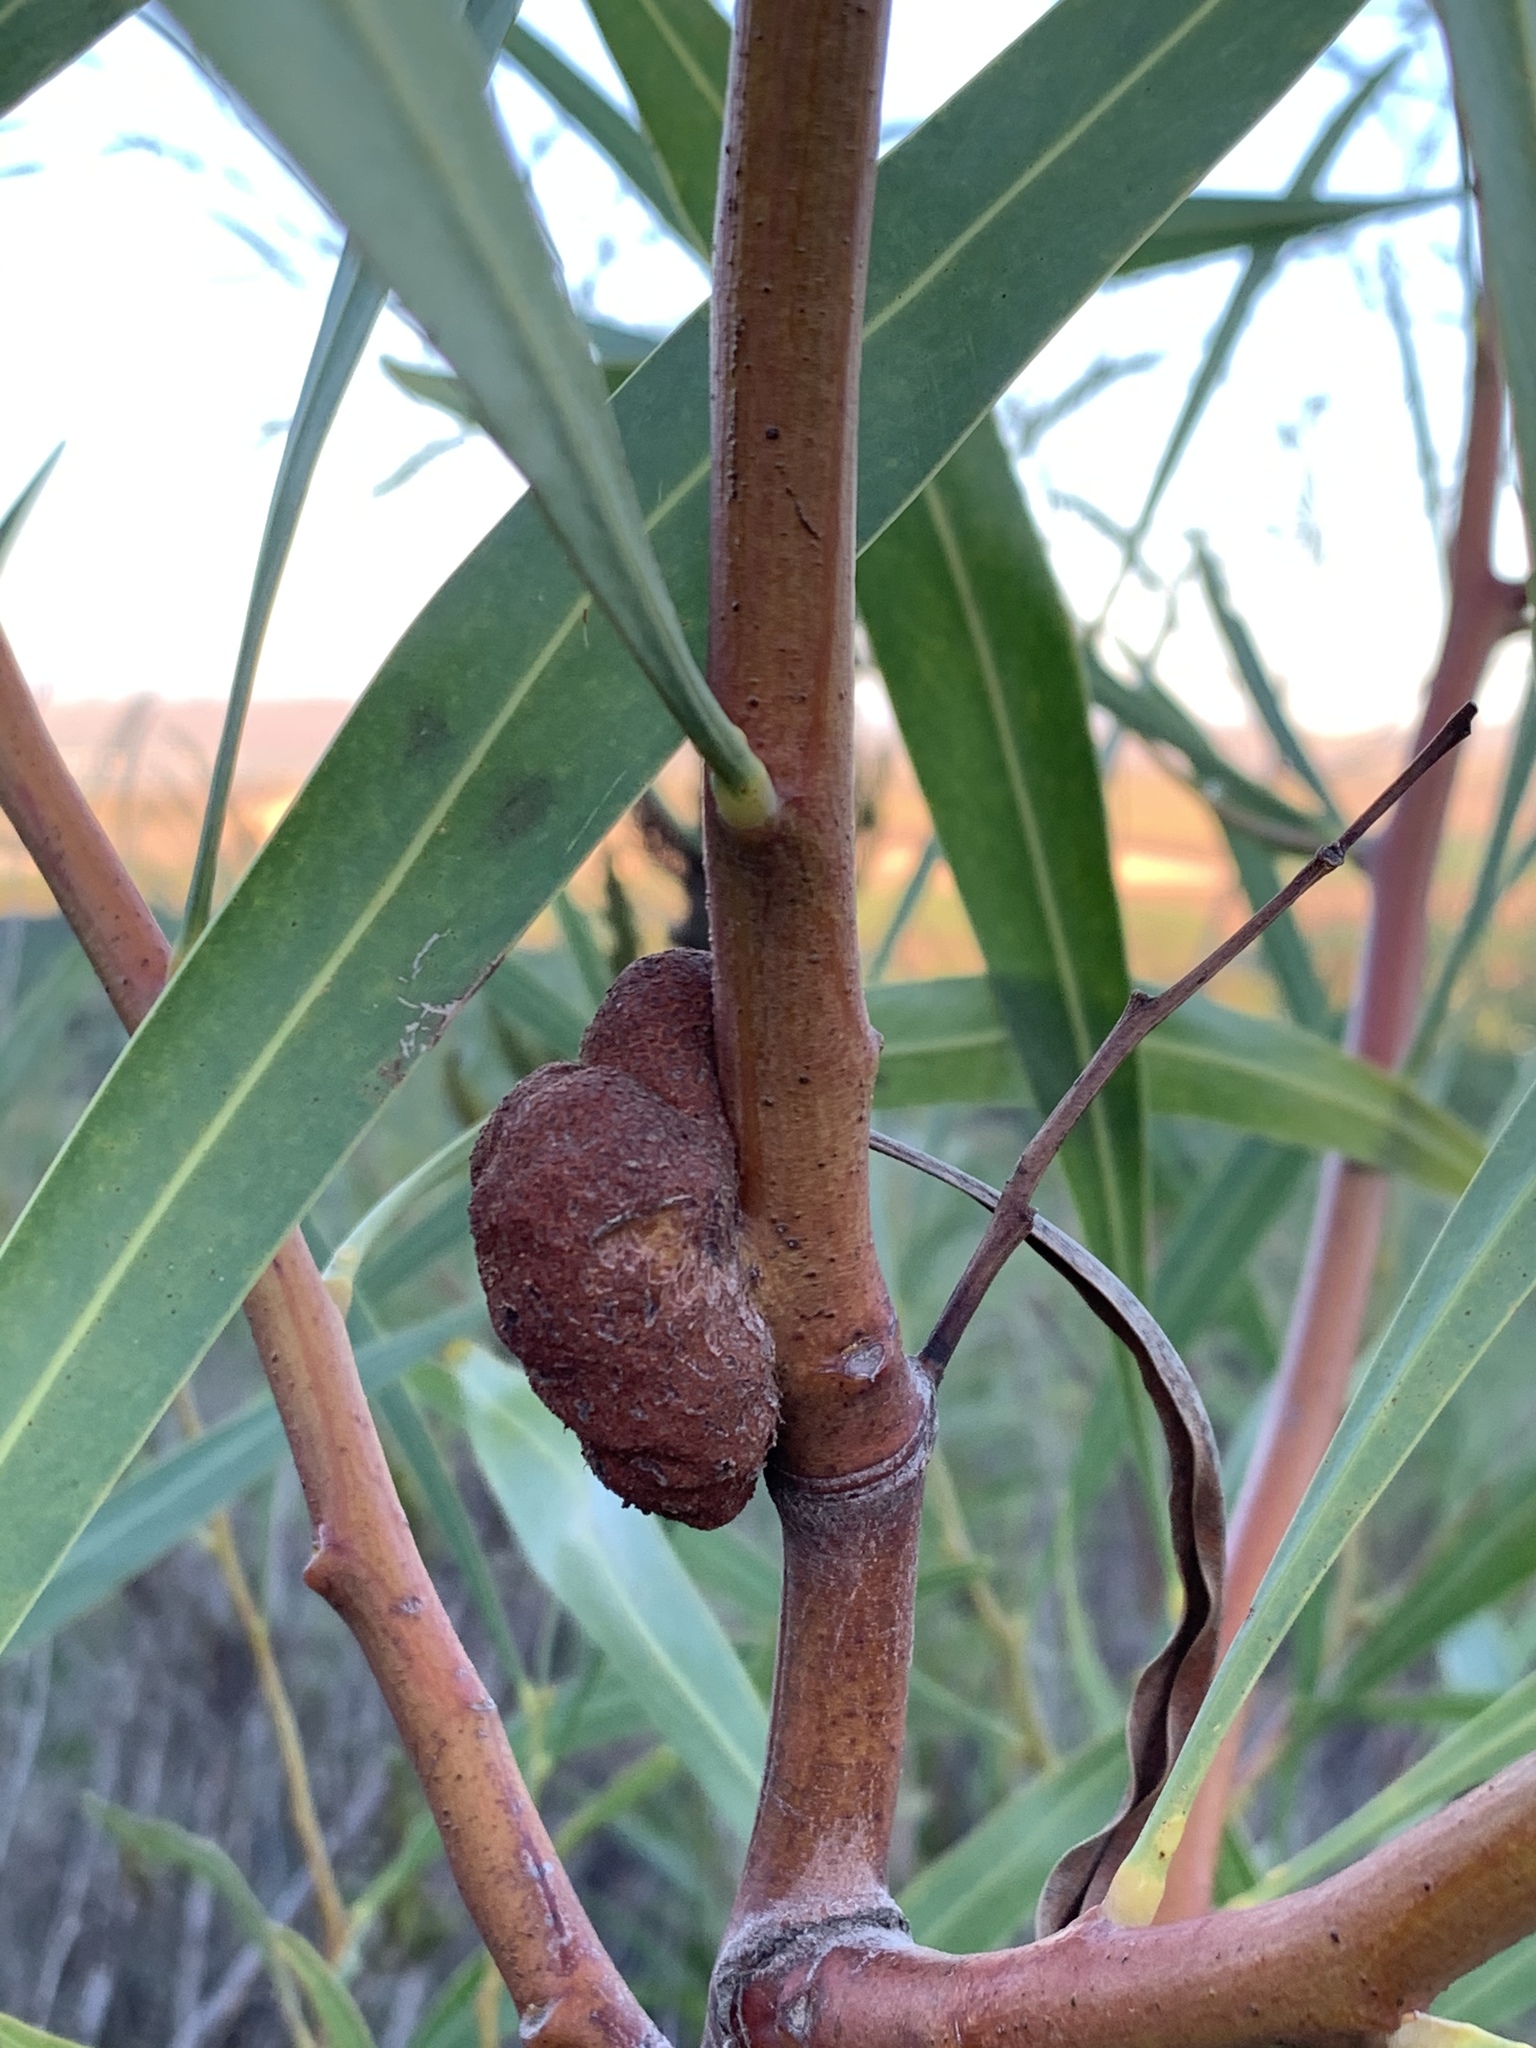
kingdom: Fungi
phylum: Basidiomycota
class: Pucciniomycetes
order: Pucciniales
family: Uromycladiaceae
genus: Uromycladium
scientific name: Uromycladium morrisii
